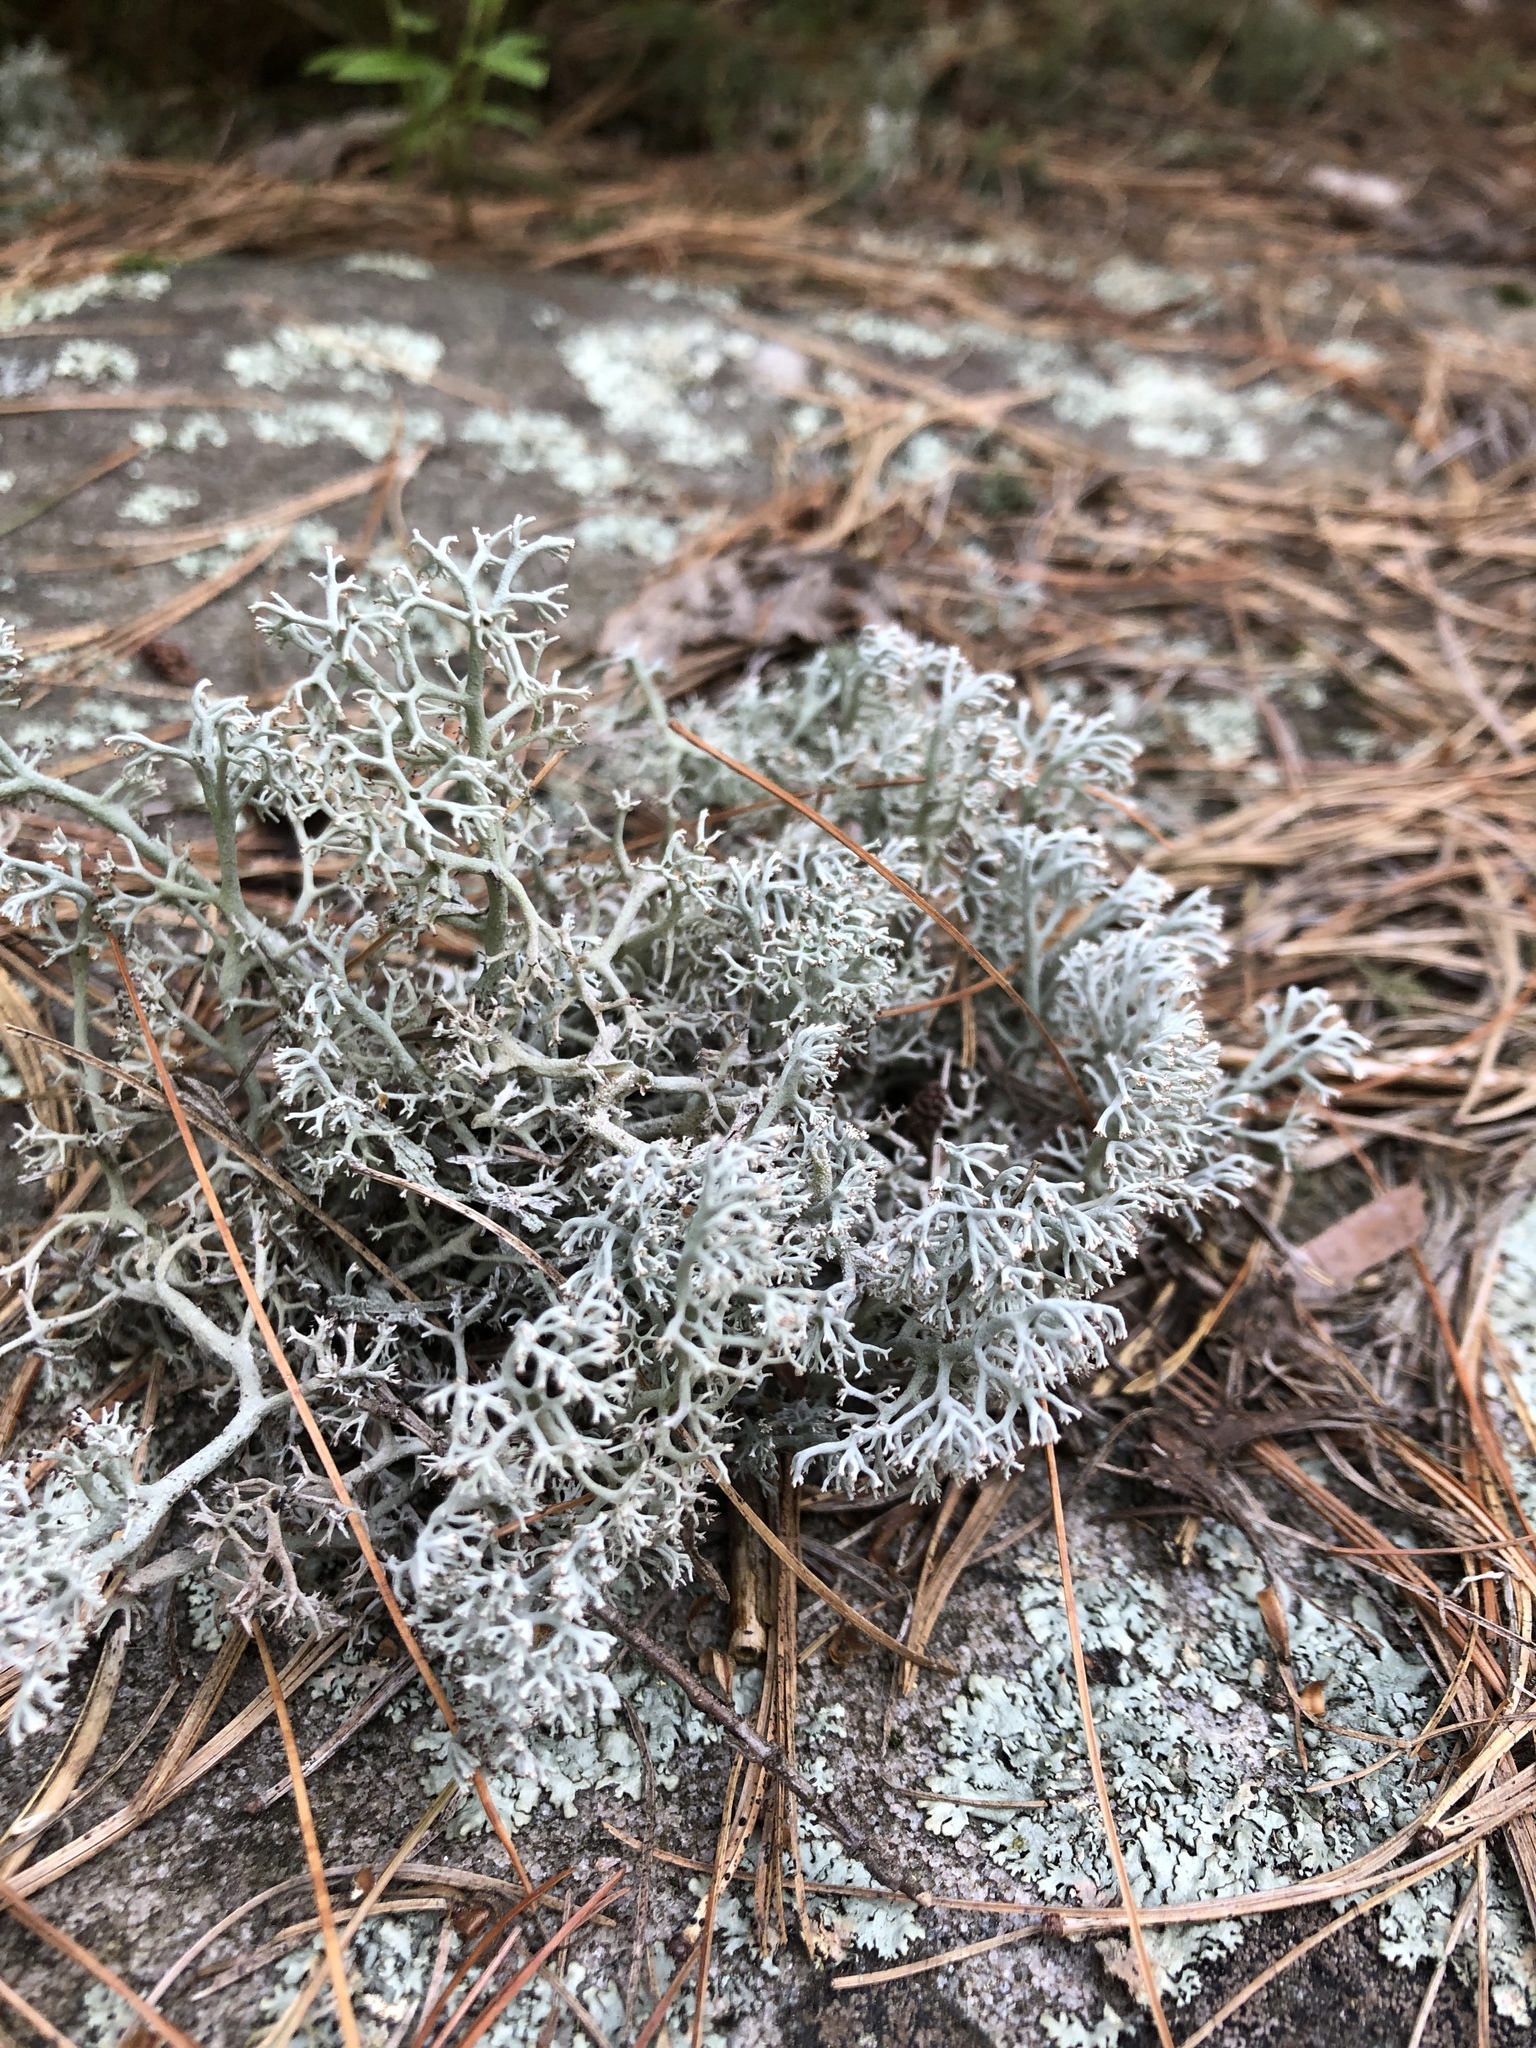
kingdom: Fungi
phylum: Ascomycota
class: Lecanoromycetes
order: Lecanorales
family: Cladoniaceae
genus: Cladonia
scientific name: Cladonia rangiferina
